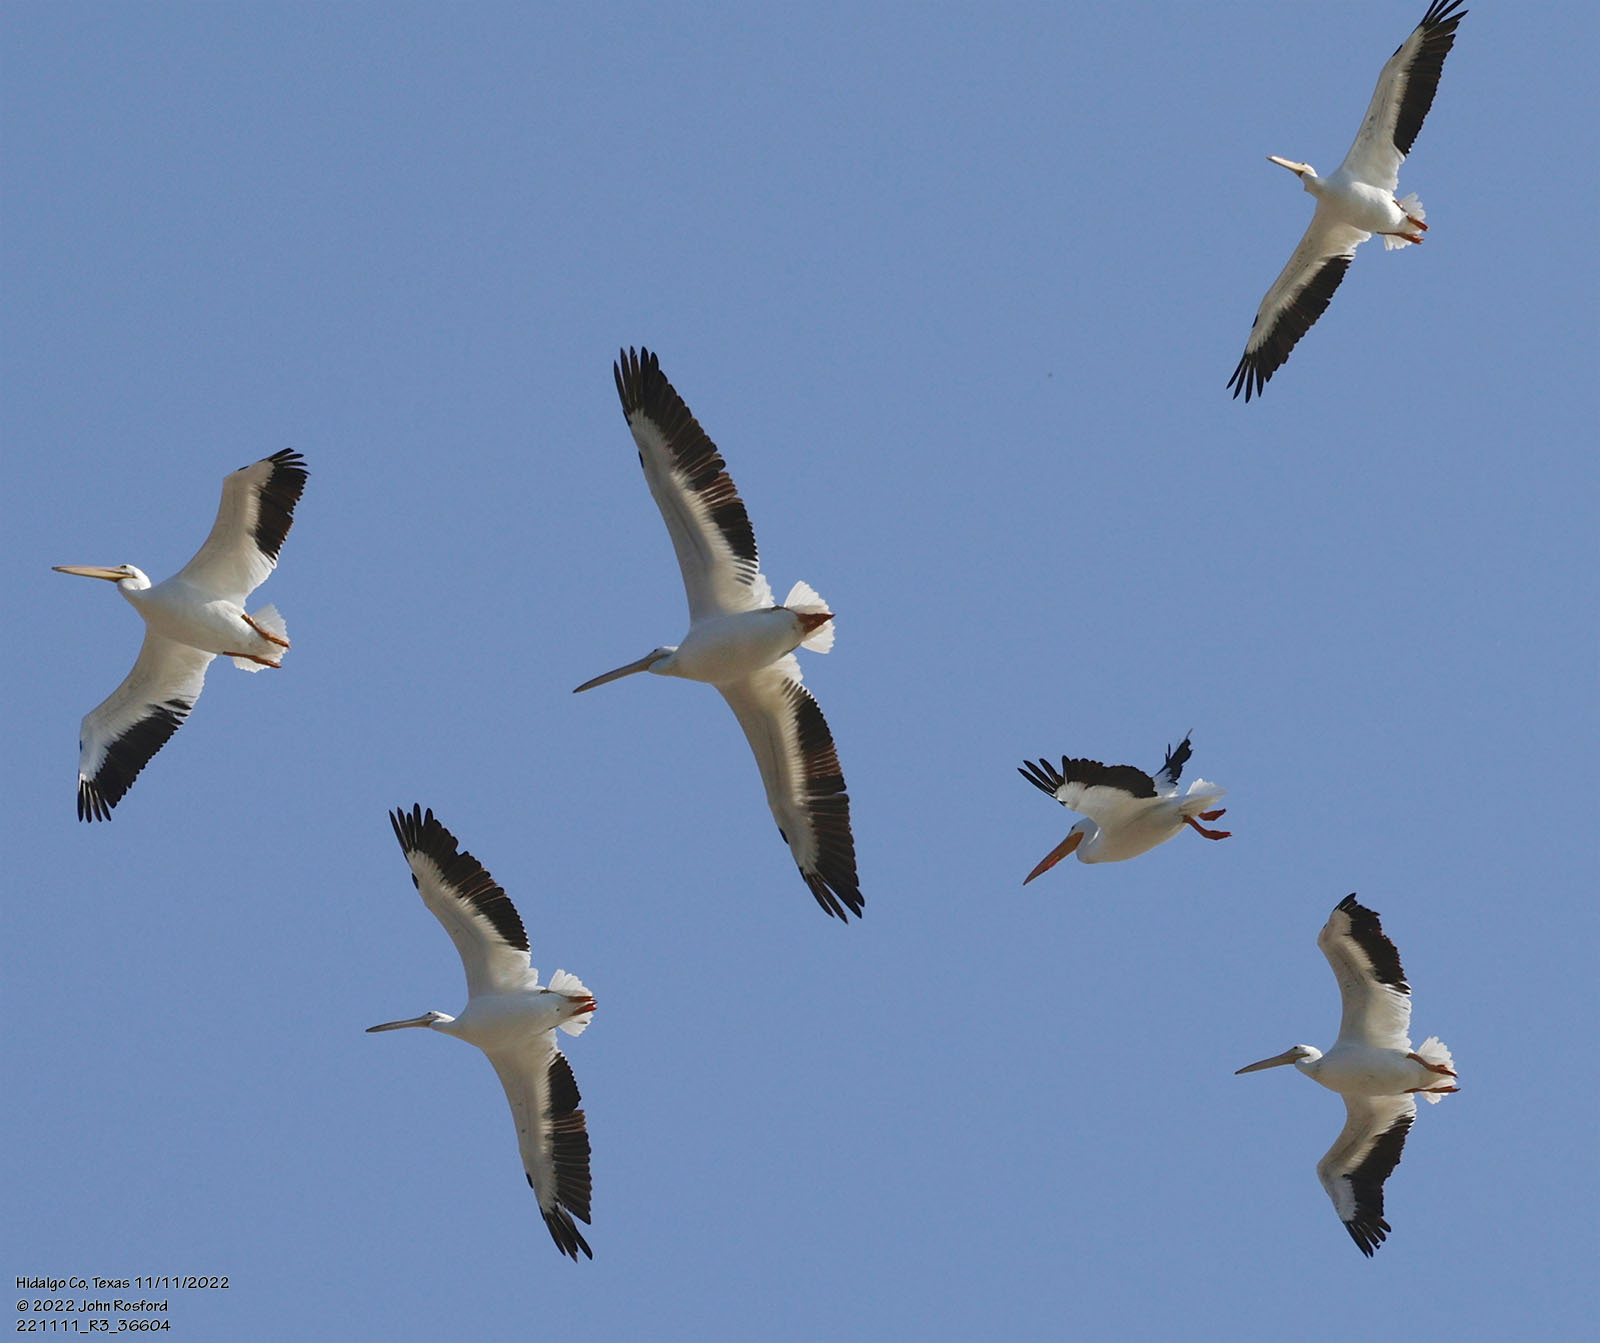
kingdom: Animalia
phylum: Chordata
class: Aves
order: Pelecaniformes
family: Pelecanidae
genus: Pelecanus
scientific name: Pelecanus erythrorhynchos
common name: American white pelican
